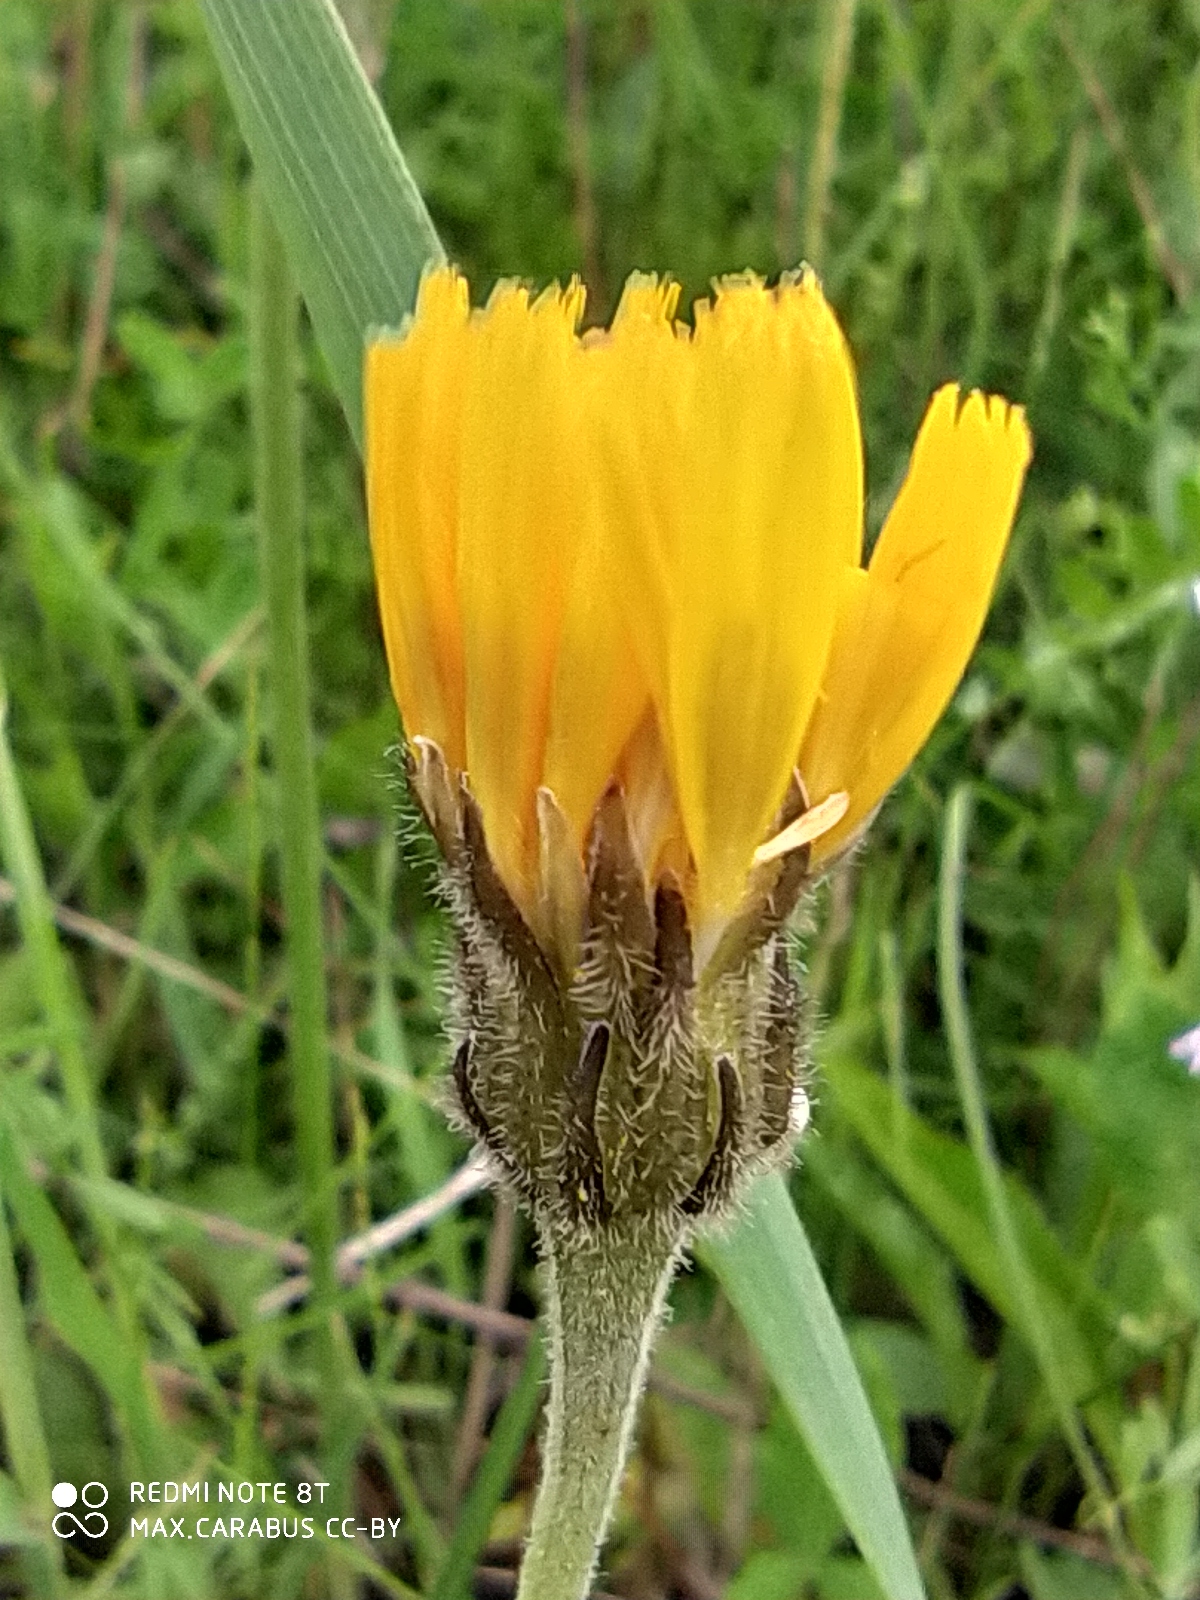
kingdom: Plantae
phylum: Tracheophyta
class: Magnoliopsida
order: Asterales
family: Asteraceae
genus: Leontodon
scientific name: Leontodon hispidus
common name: Rough hawkbit
